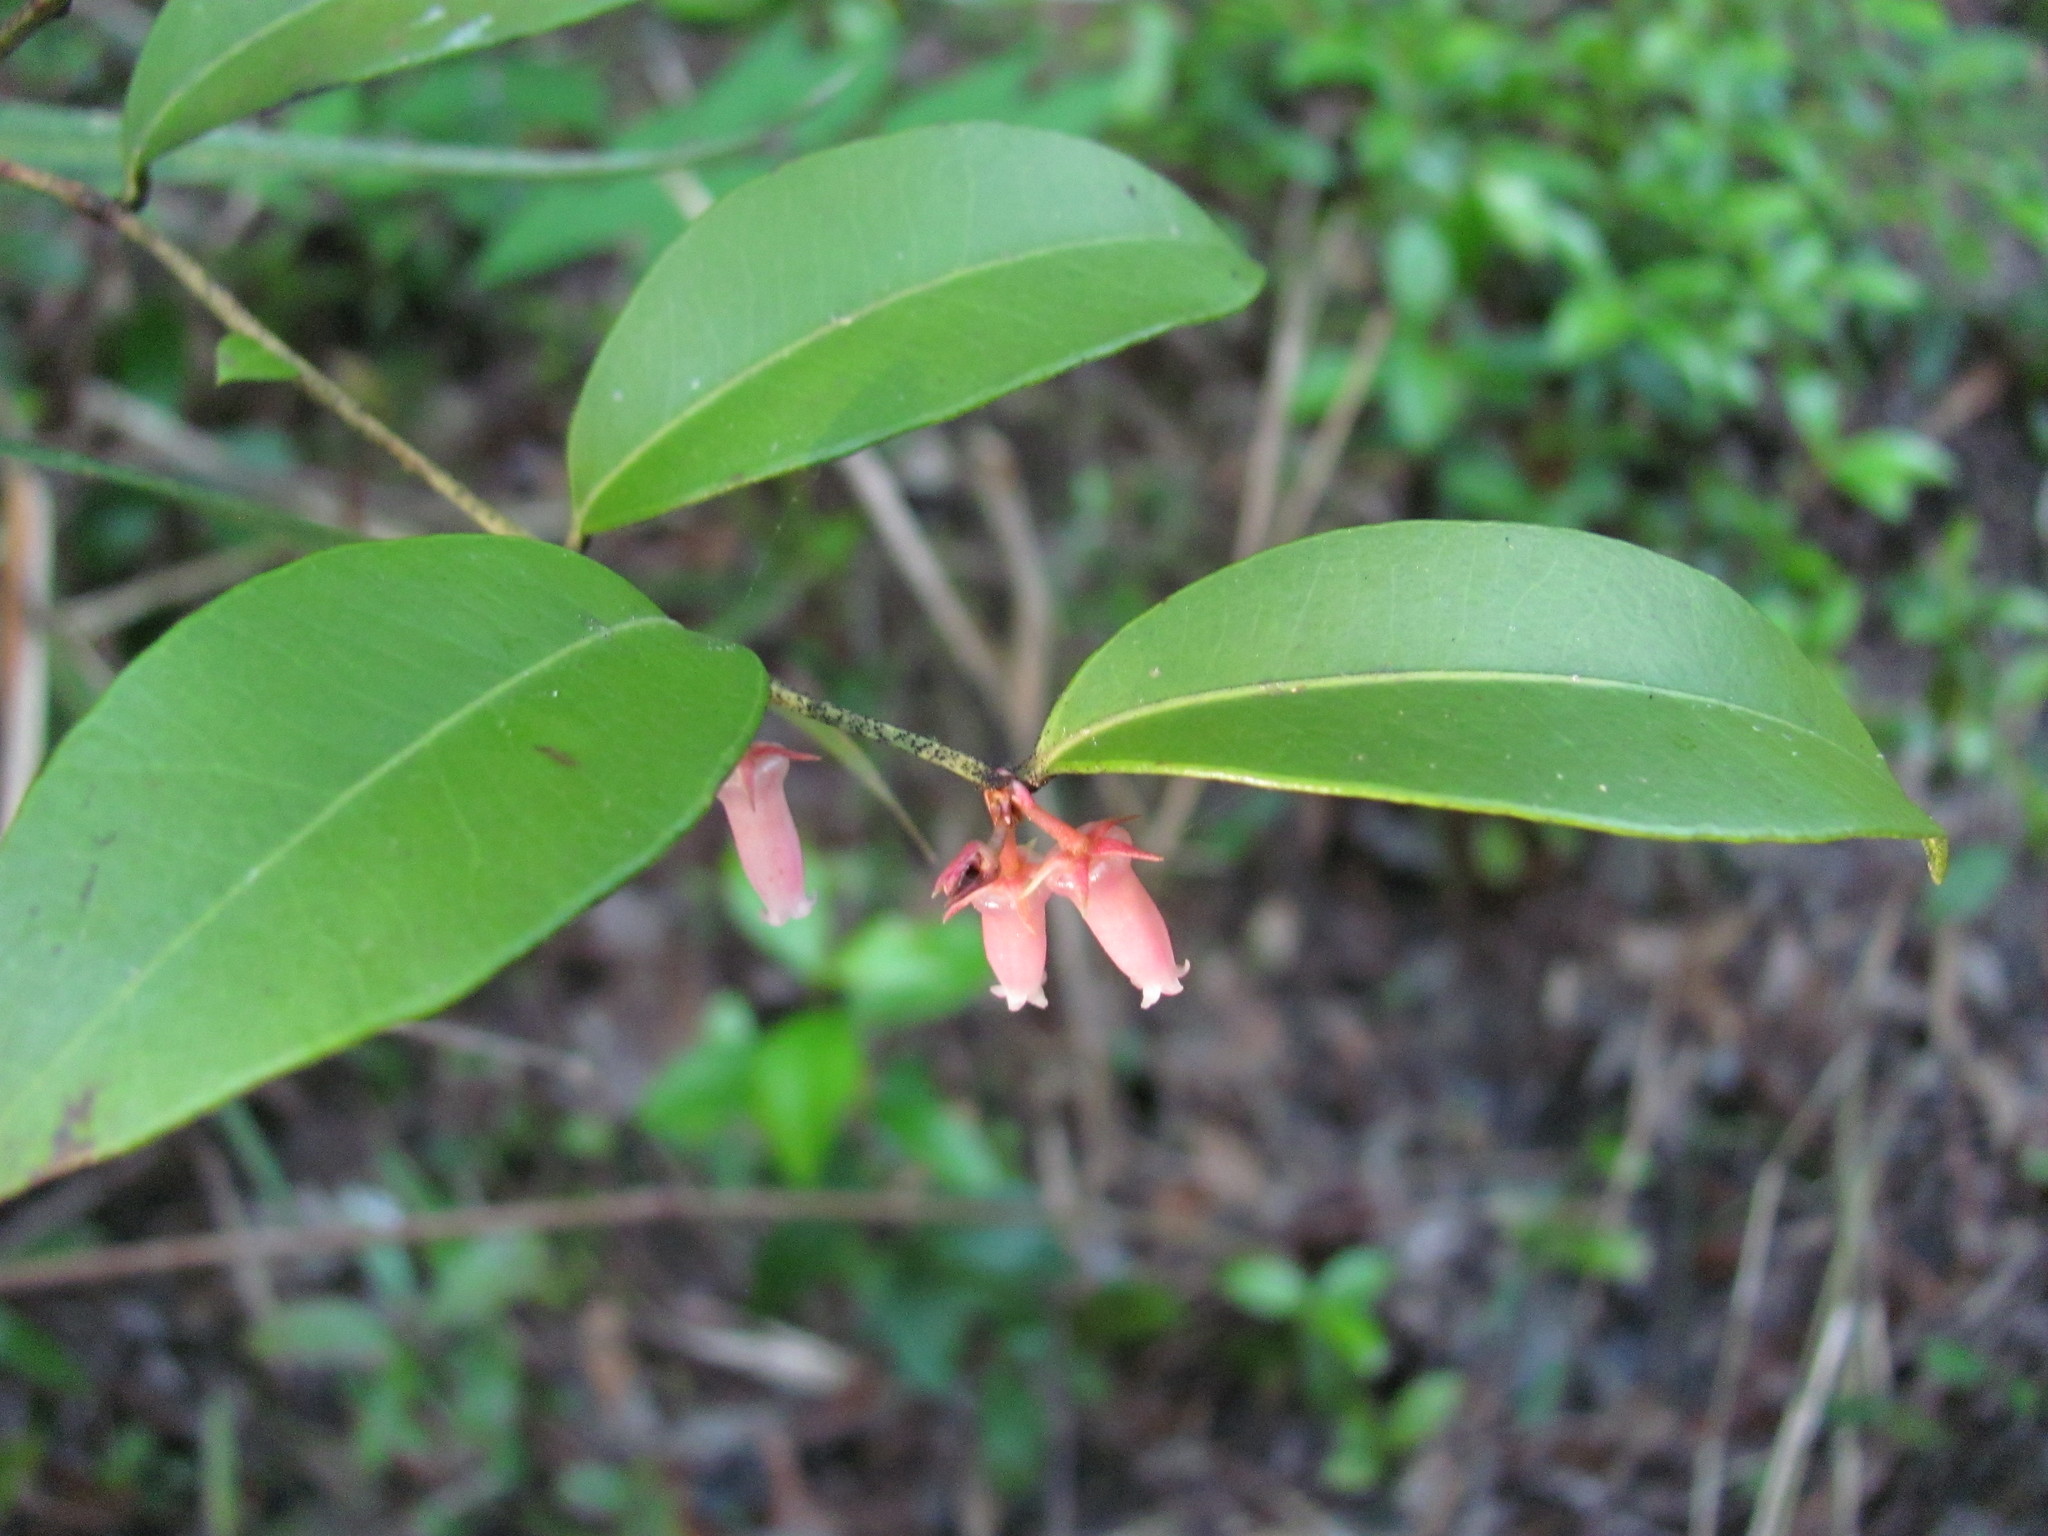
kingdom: Plantae
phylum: Tracheophyta
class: Magnoliopsida
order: Ericales
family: Ericaceae
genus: Lyonia
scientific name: Lyonia lucida
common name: Fetterbush
